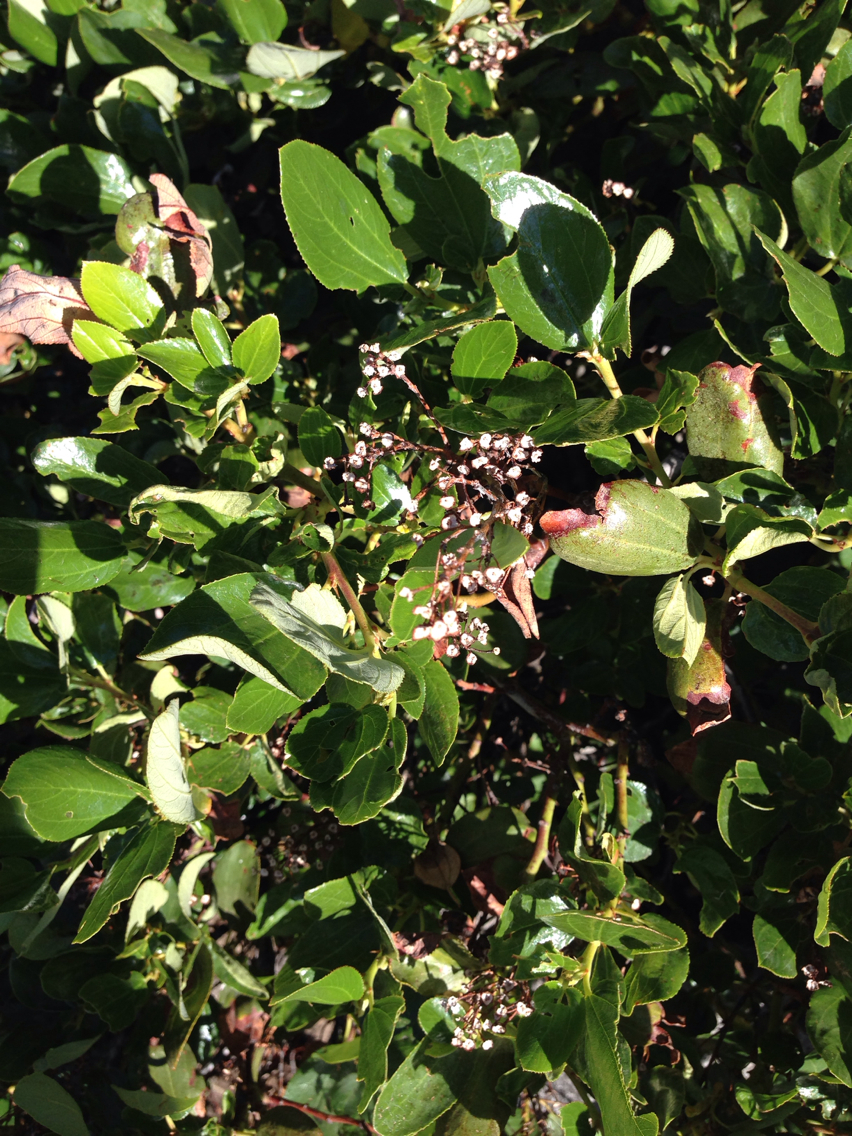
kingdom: Plantae
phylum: Tracheophyta
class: Magnoliopsida
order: Rosales
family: Rhamnaceae
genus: Ceanothus
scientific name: Ceanothus velutinus
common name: Snowbrush
